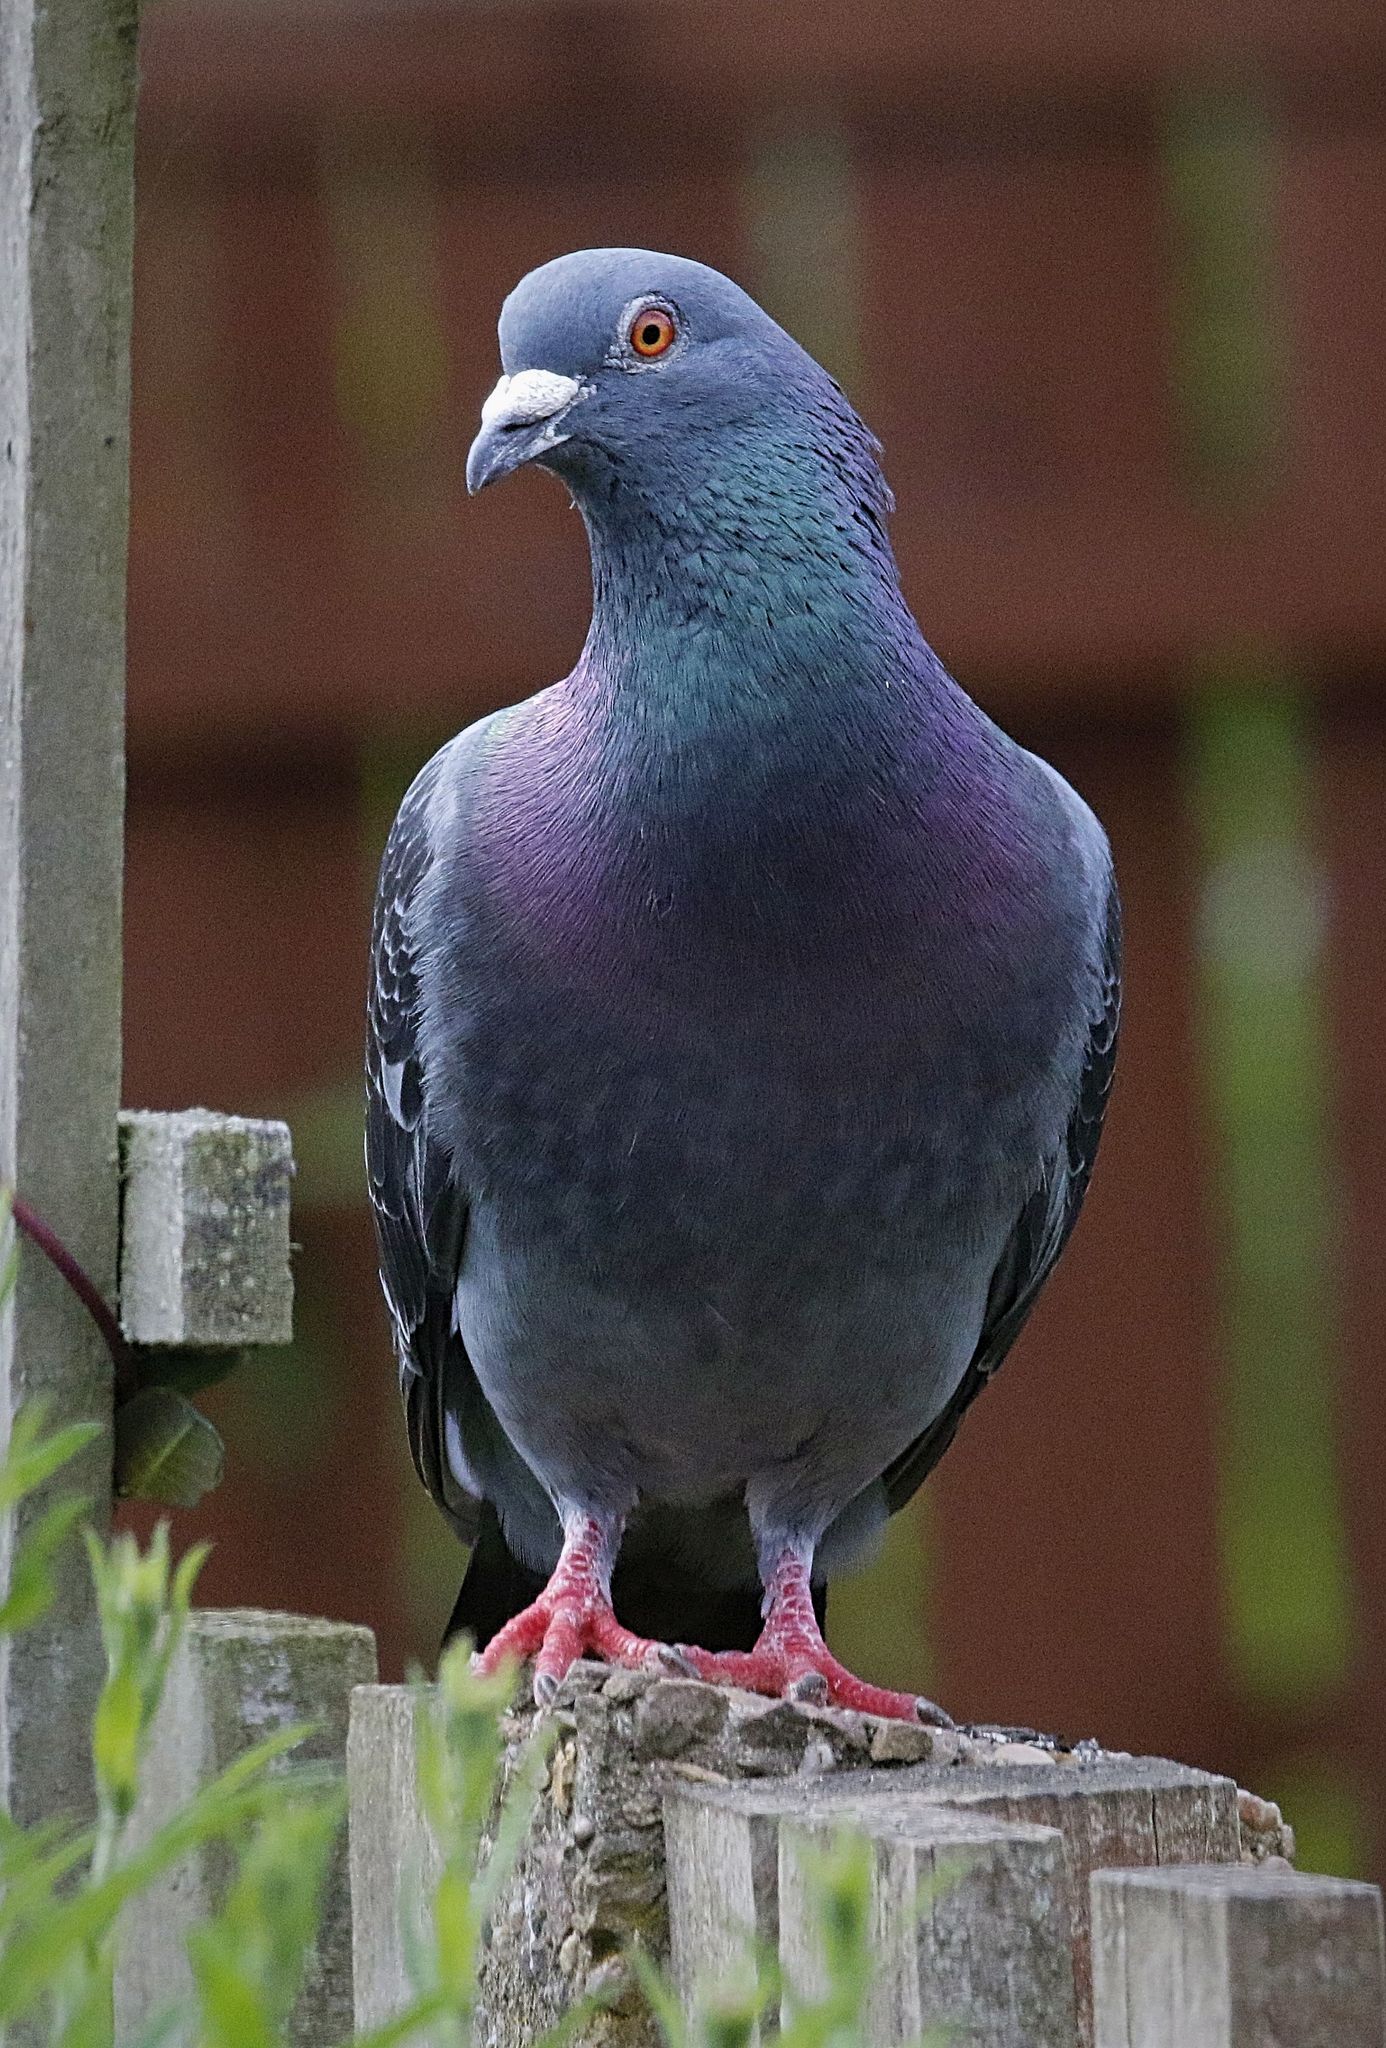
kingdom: Animalia
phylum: Chordata
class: Aves
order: Columbiformes
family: Columbidae
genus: Columba
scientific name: Columba livia
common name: Rock pigeon
